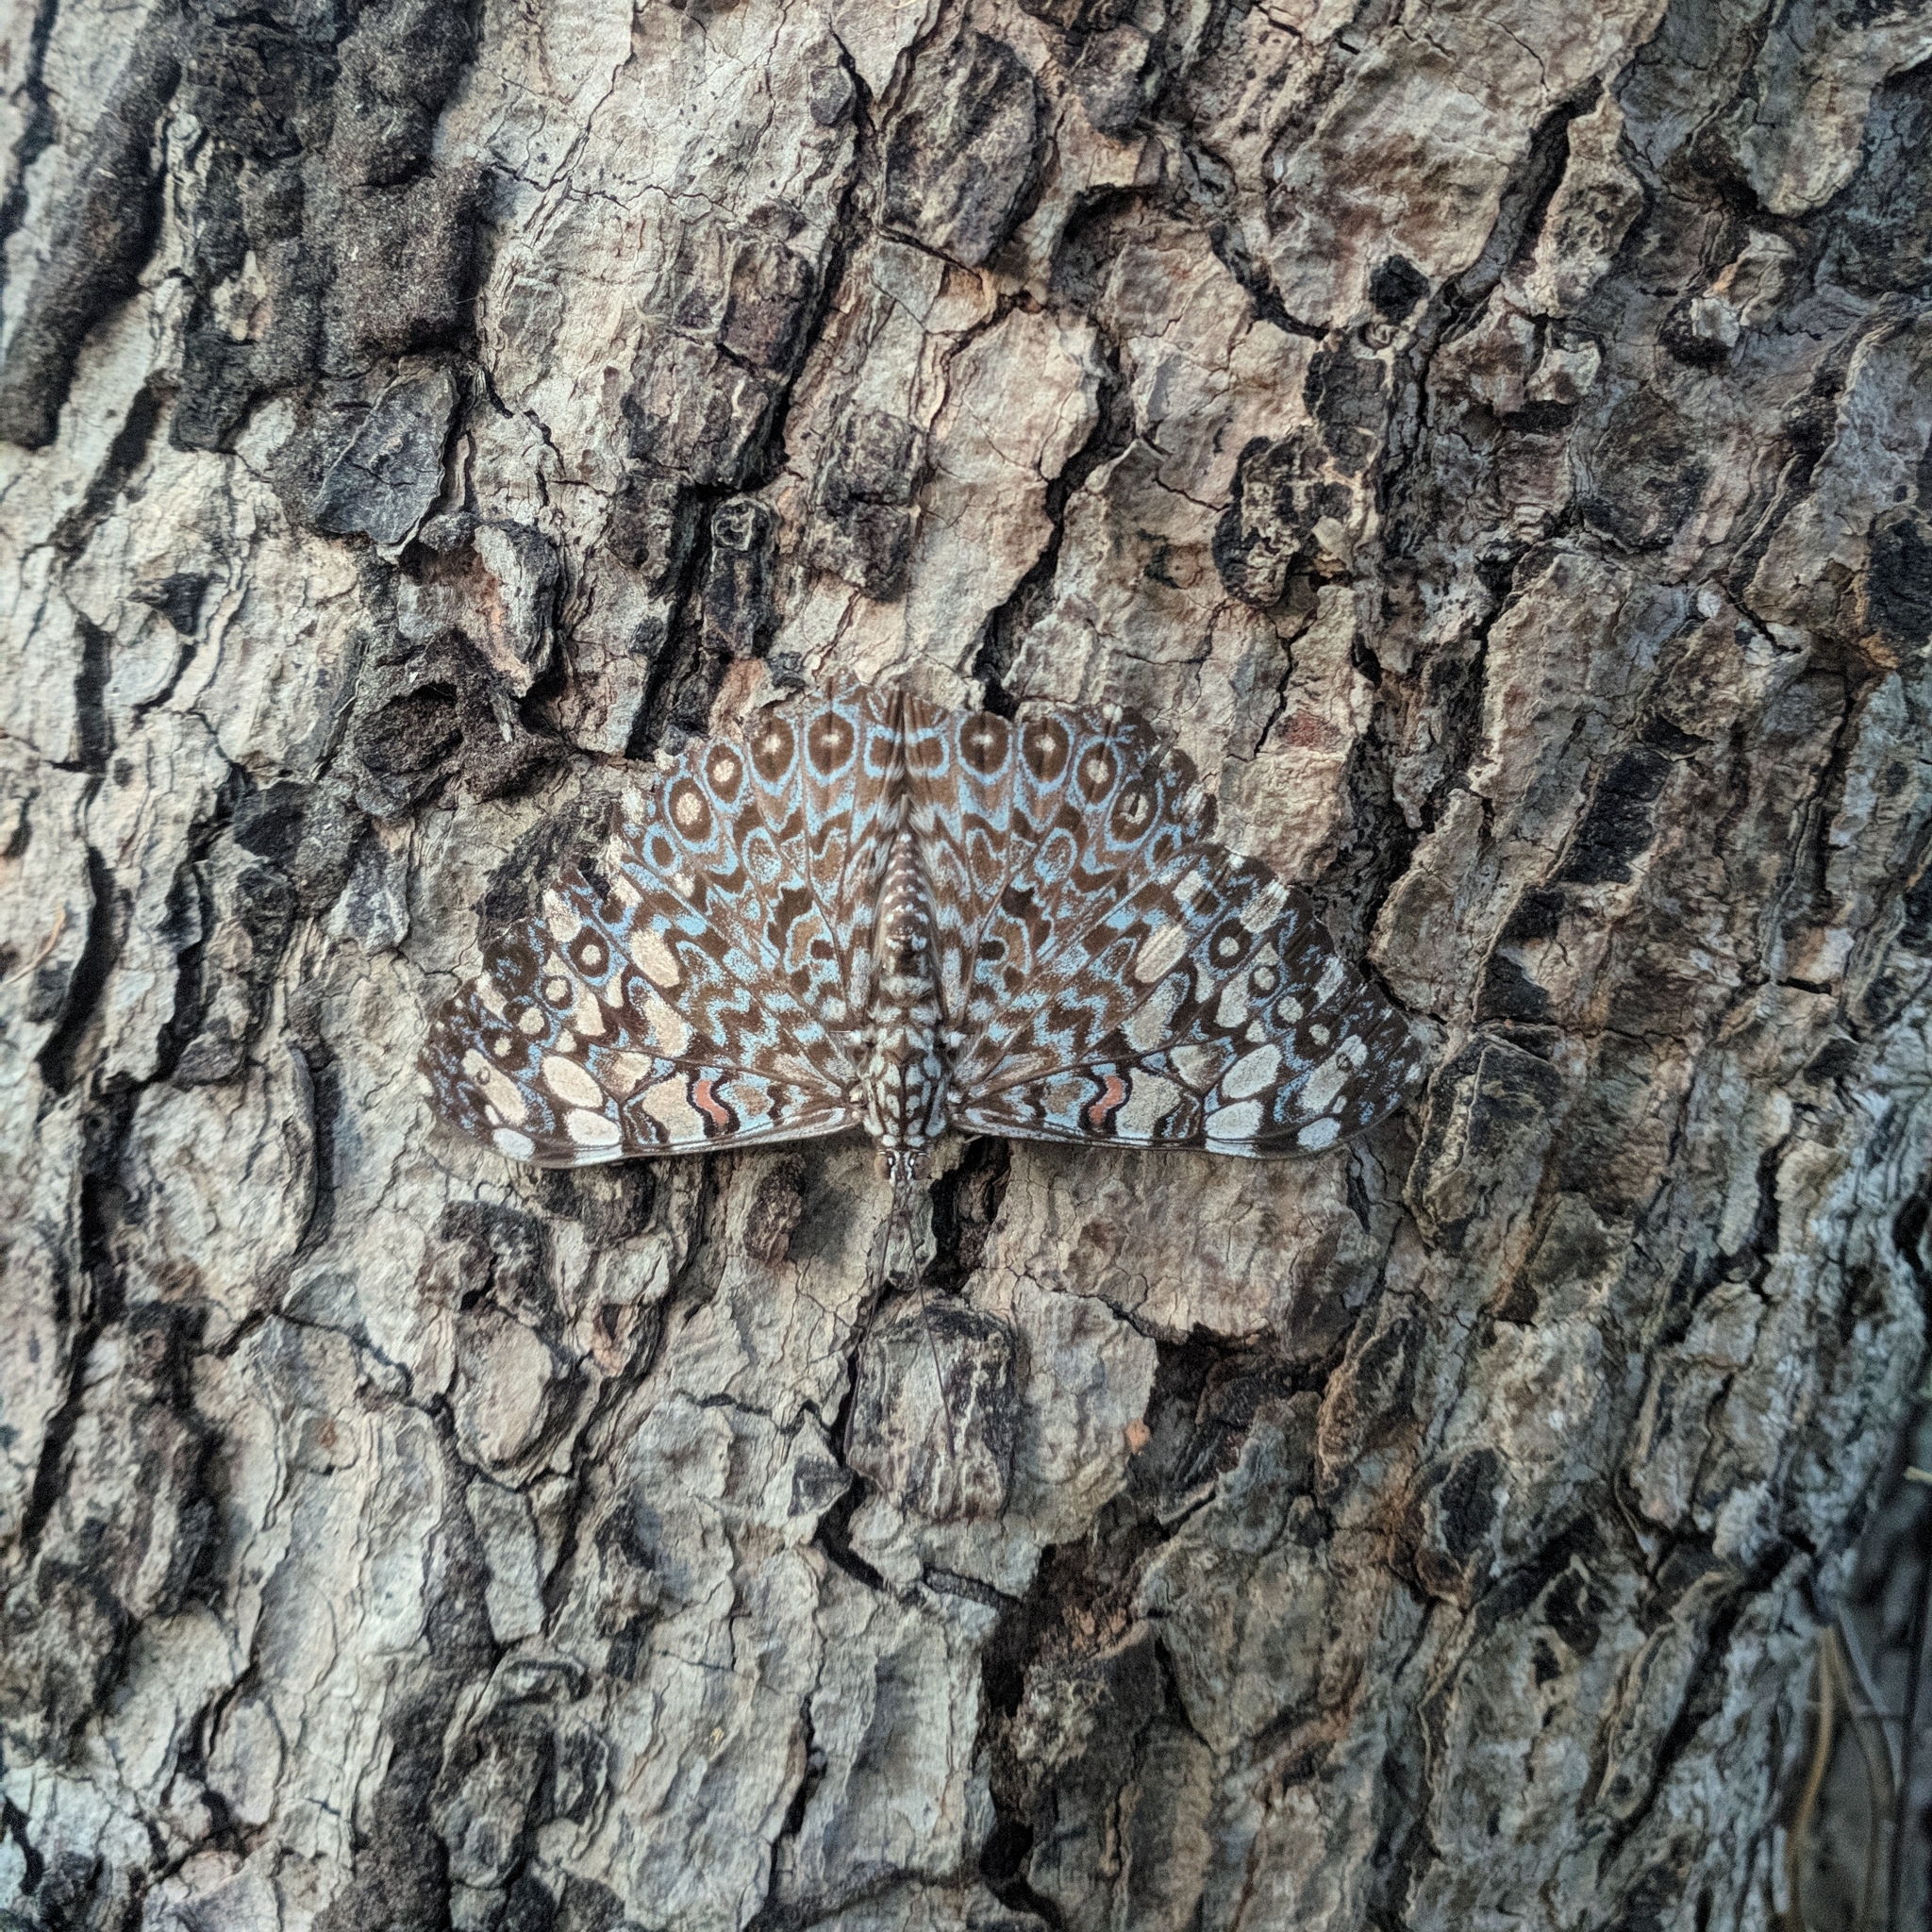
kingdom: Animalia
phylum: Arthropoda
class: Insecta
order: Lepidoptera
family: Nymphalidae
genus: Hamadryas
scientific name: Hamadryas feronia
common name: Variable cracker
